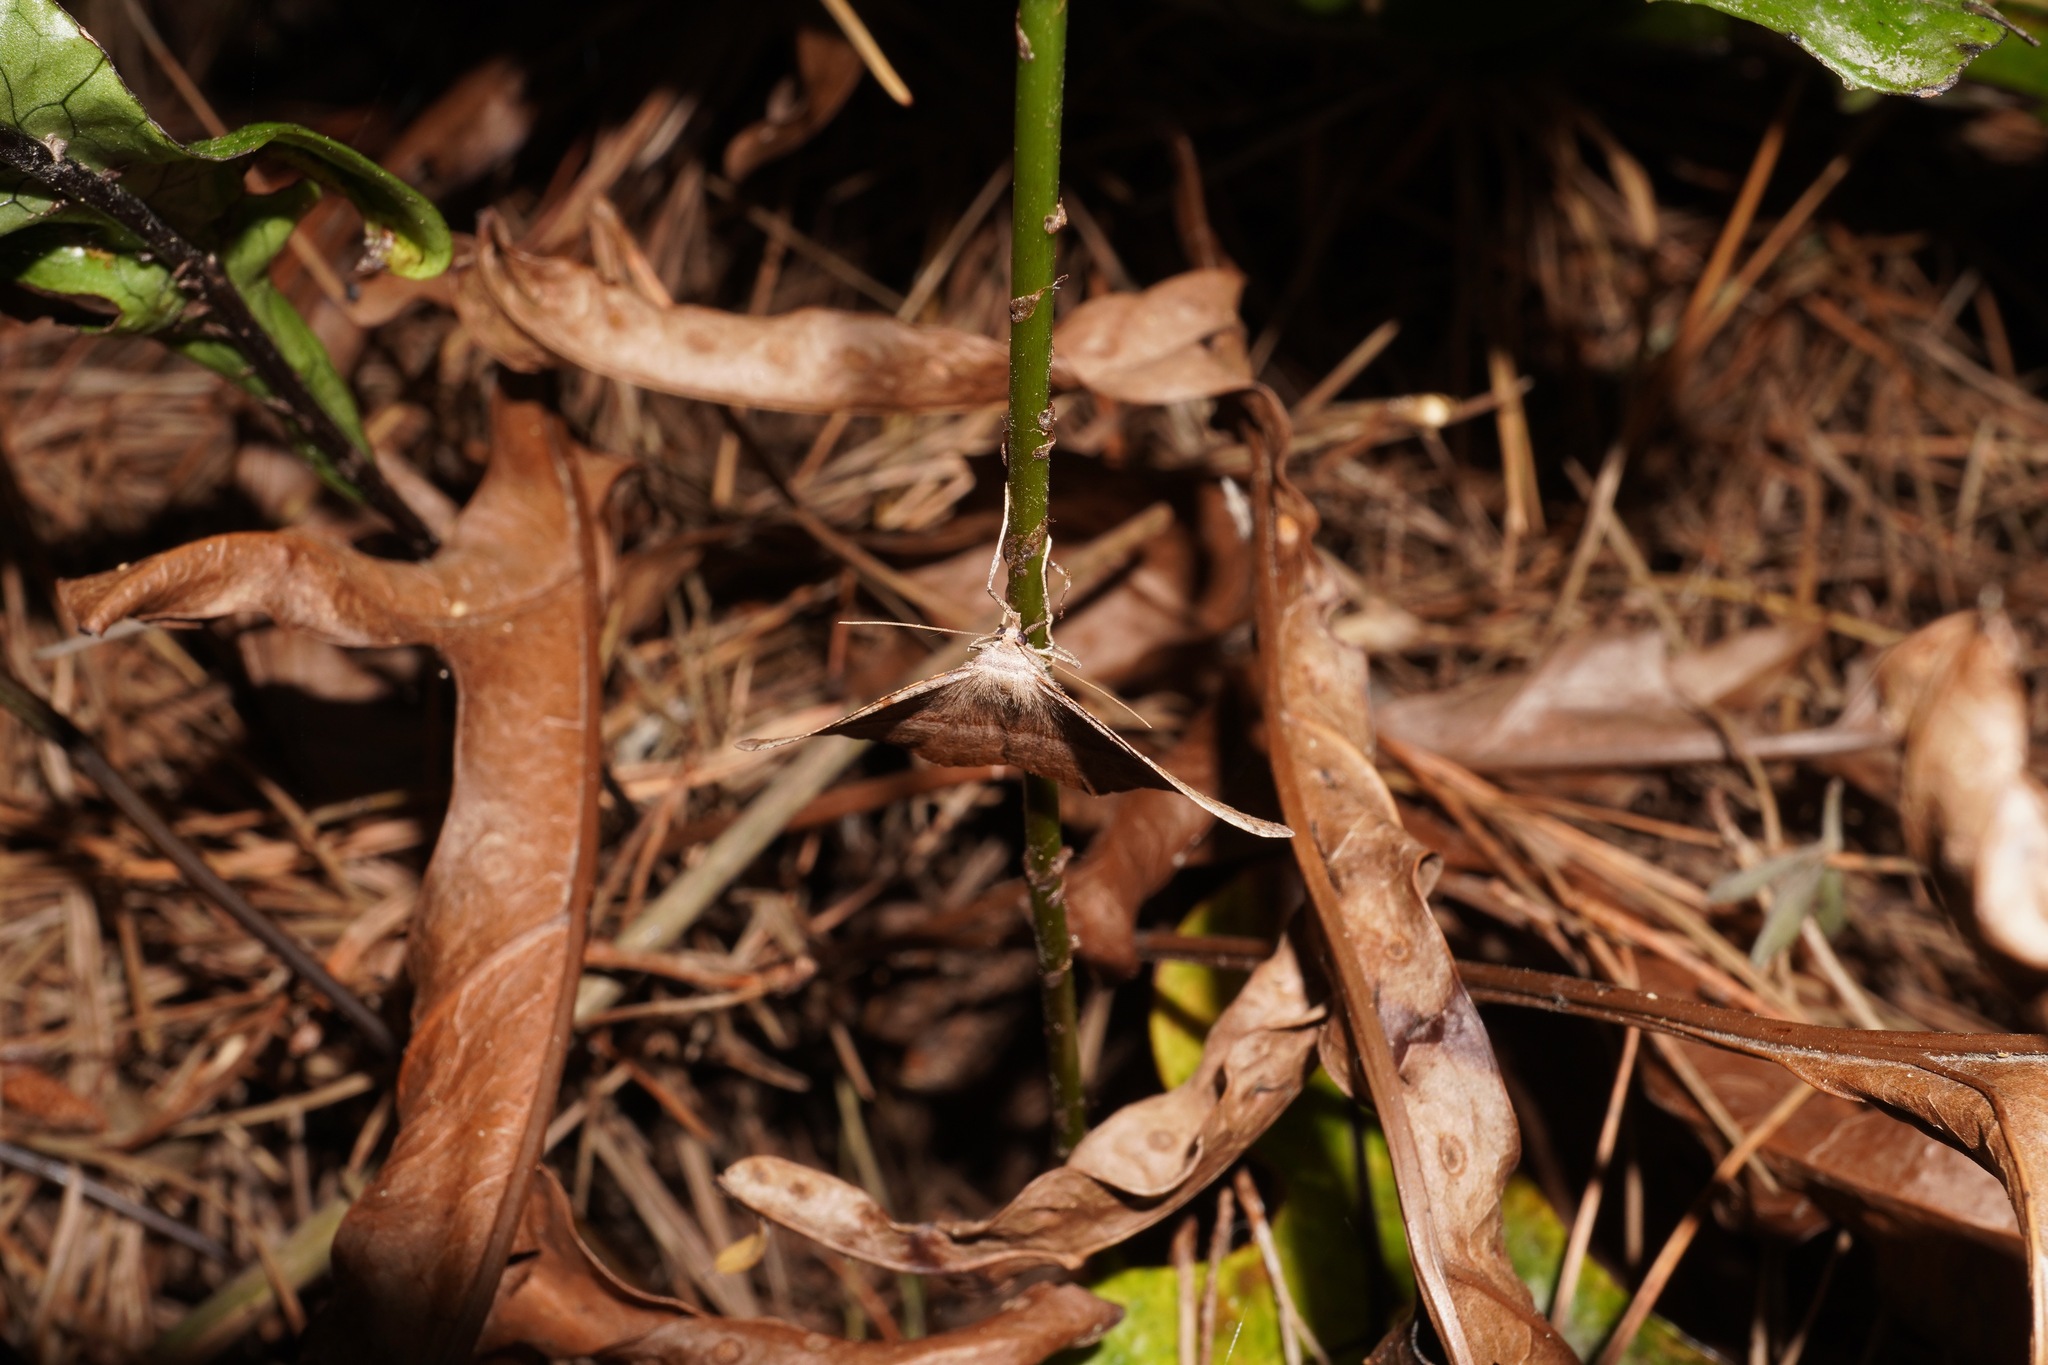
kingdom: Animalia
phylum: Arthropoda
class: Insecta
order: Lepidoptera
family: Geometridae
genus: Sarisa
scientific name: Sarisa muriferata
